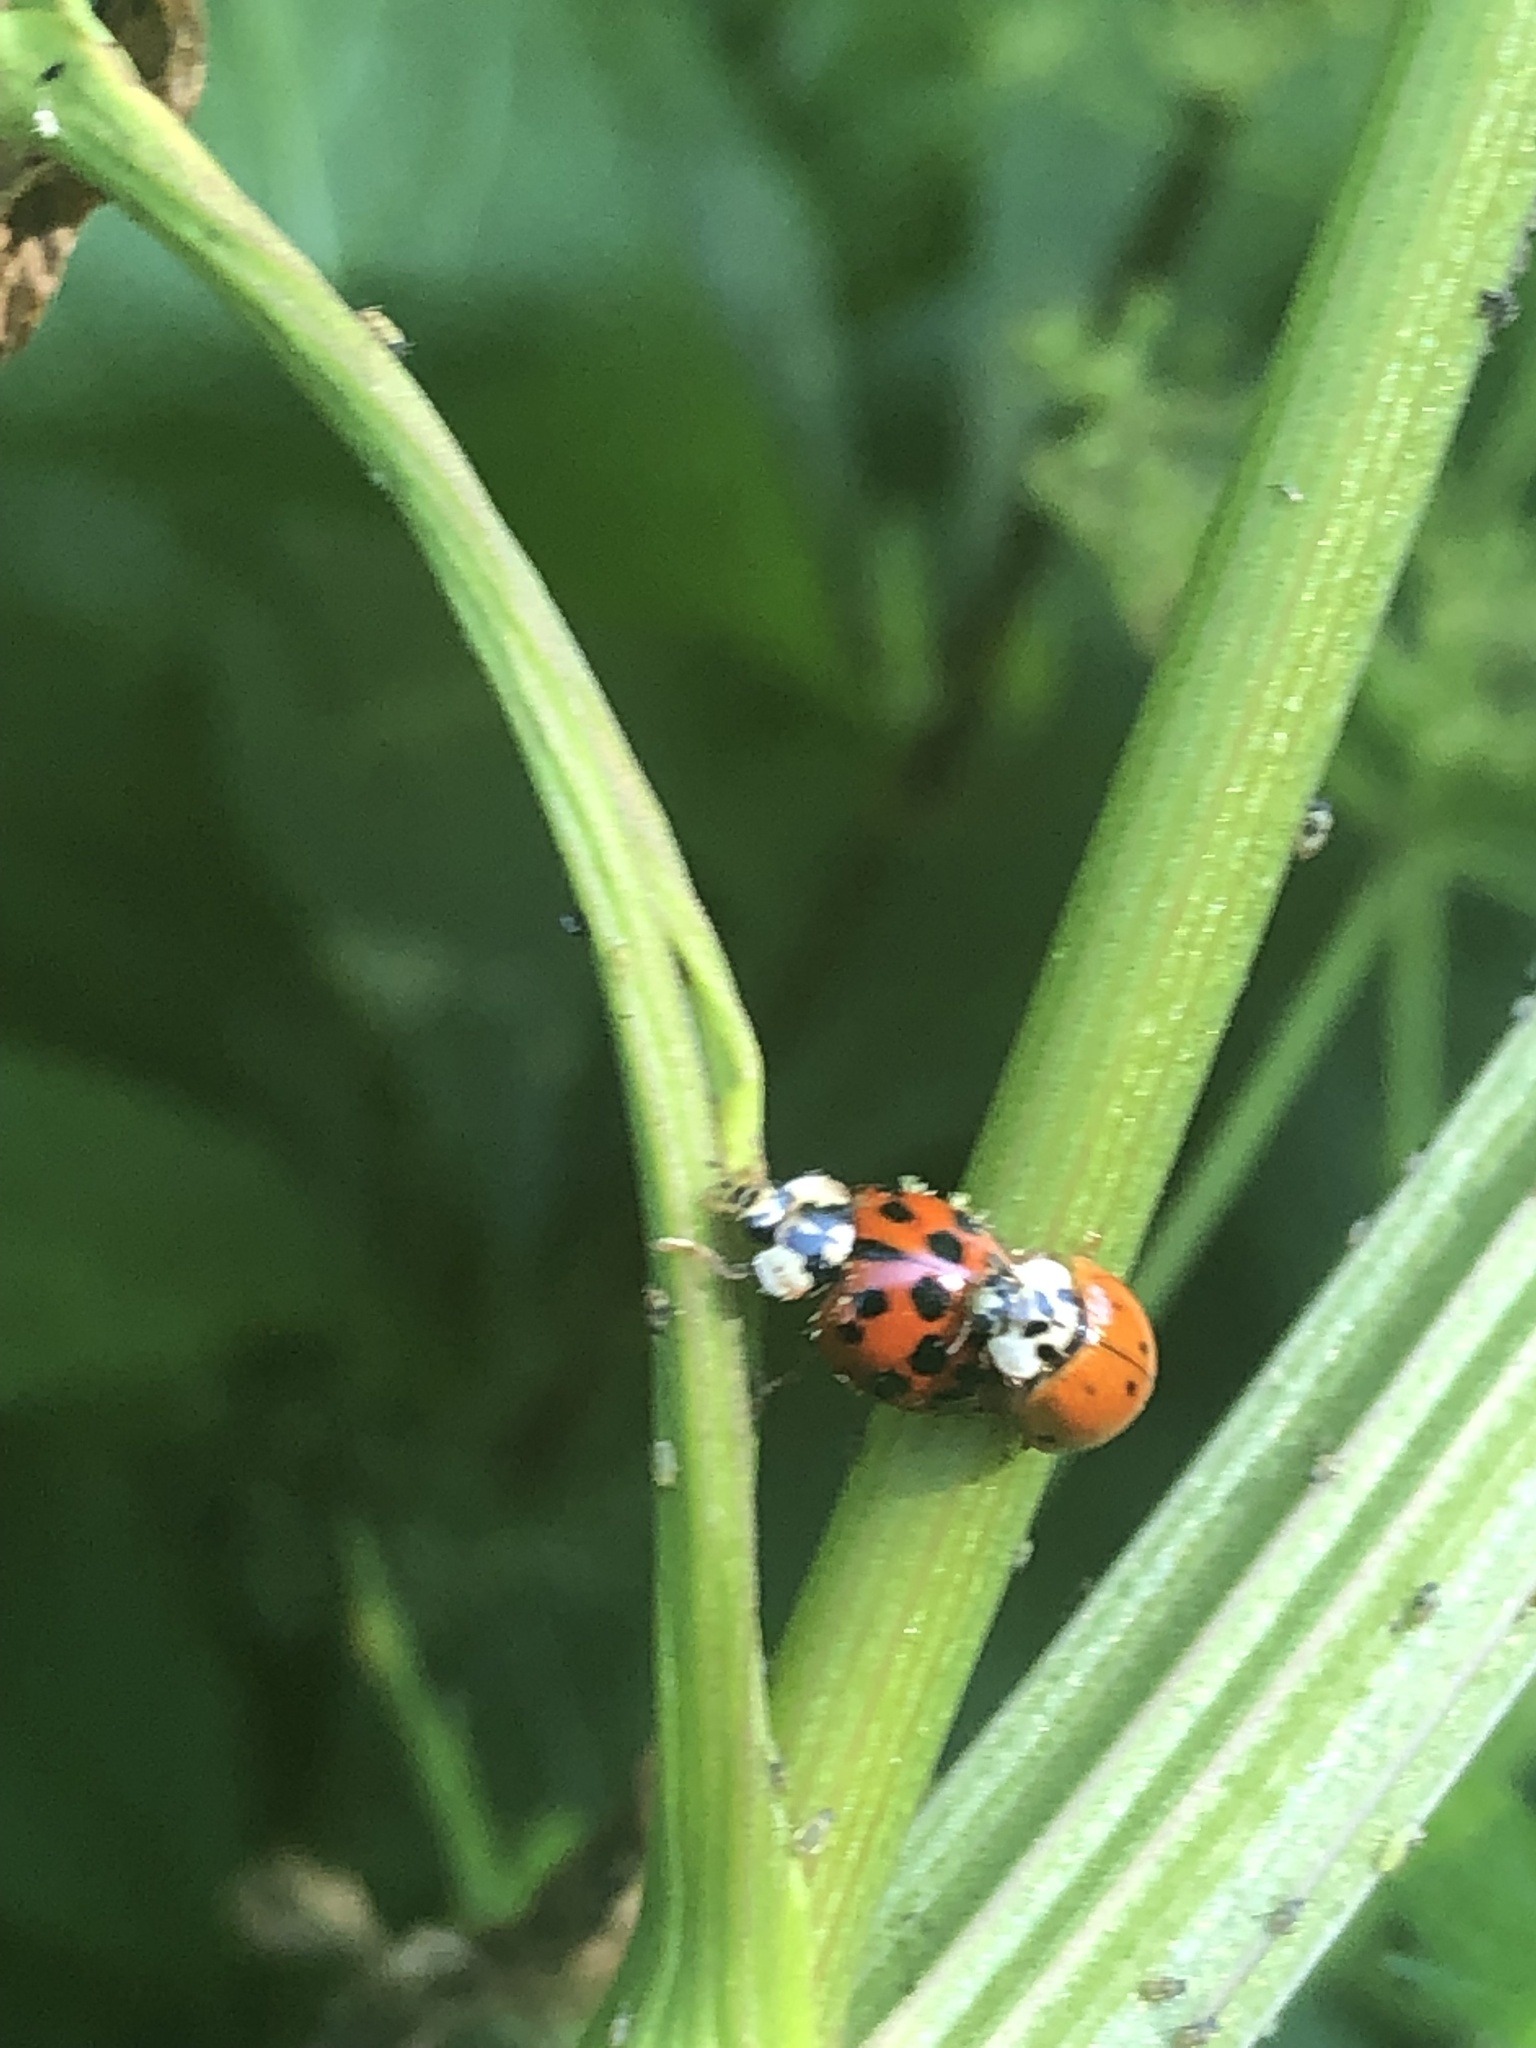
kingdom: Animalia
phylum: Arthropoda
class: Insecta
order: Coleoptera
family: Coccinellidae
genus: Harmonia
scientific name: Harmonia axyridis
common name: Harlequin ladybird
